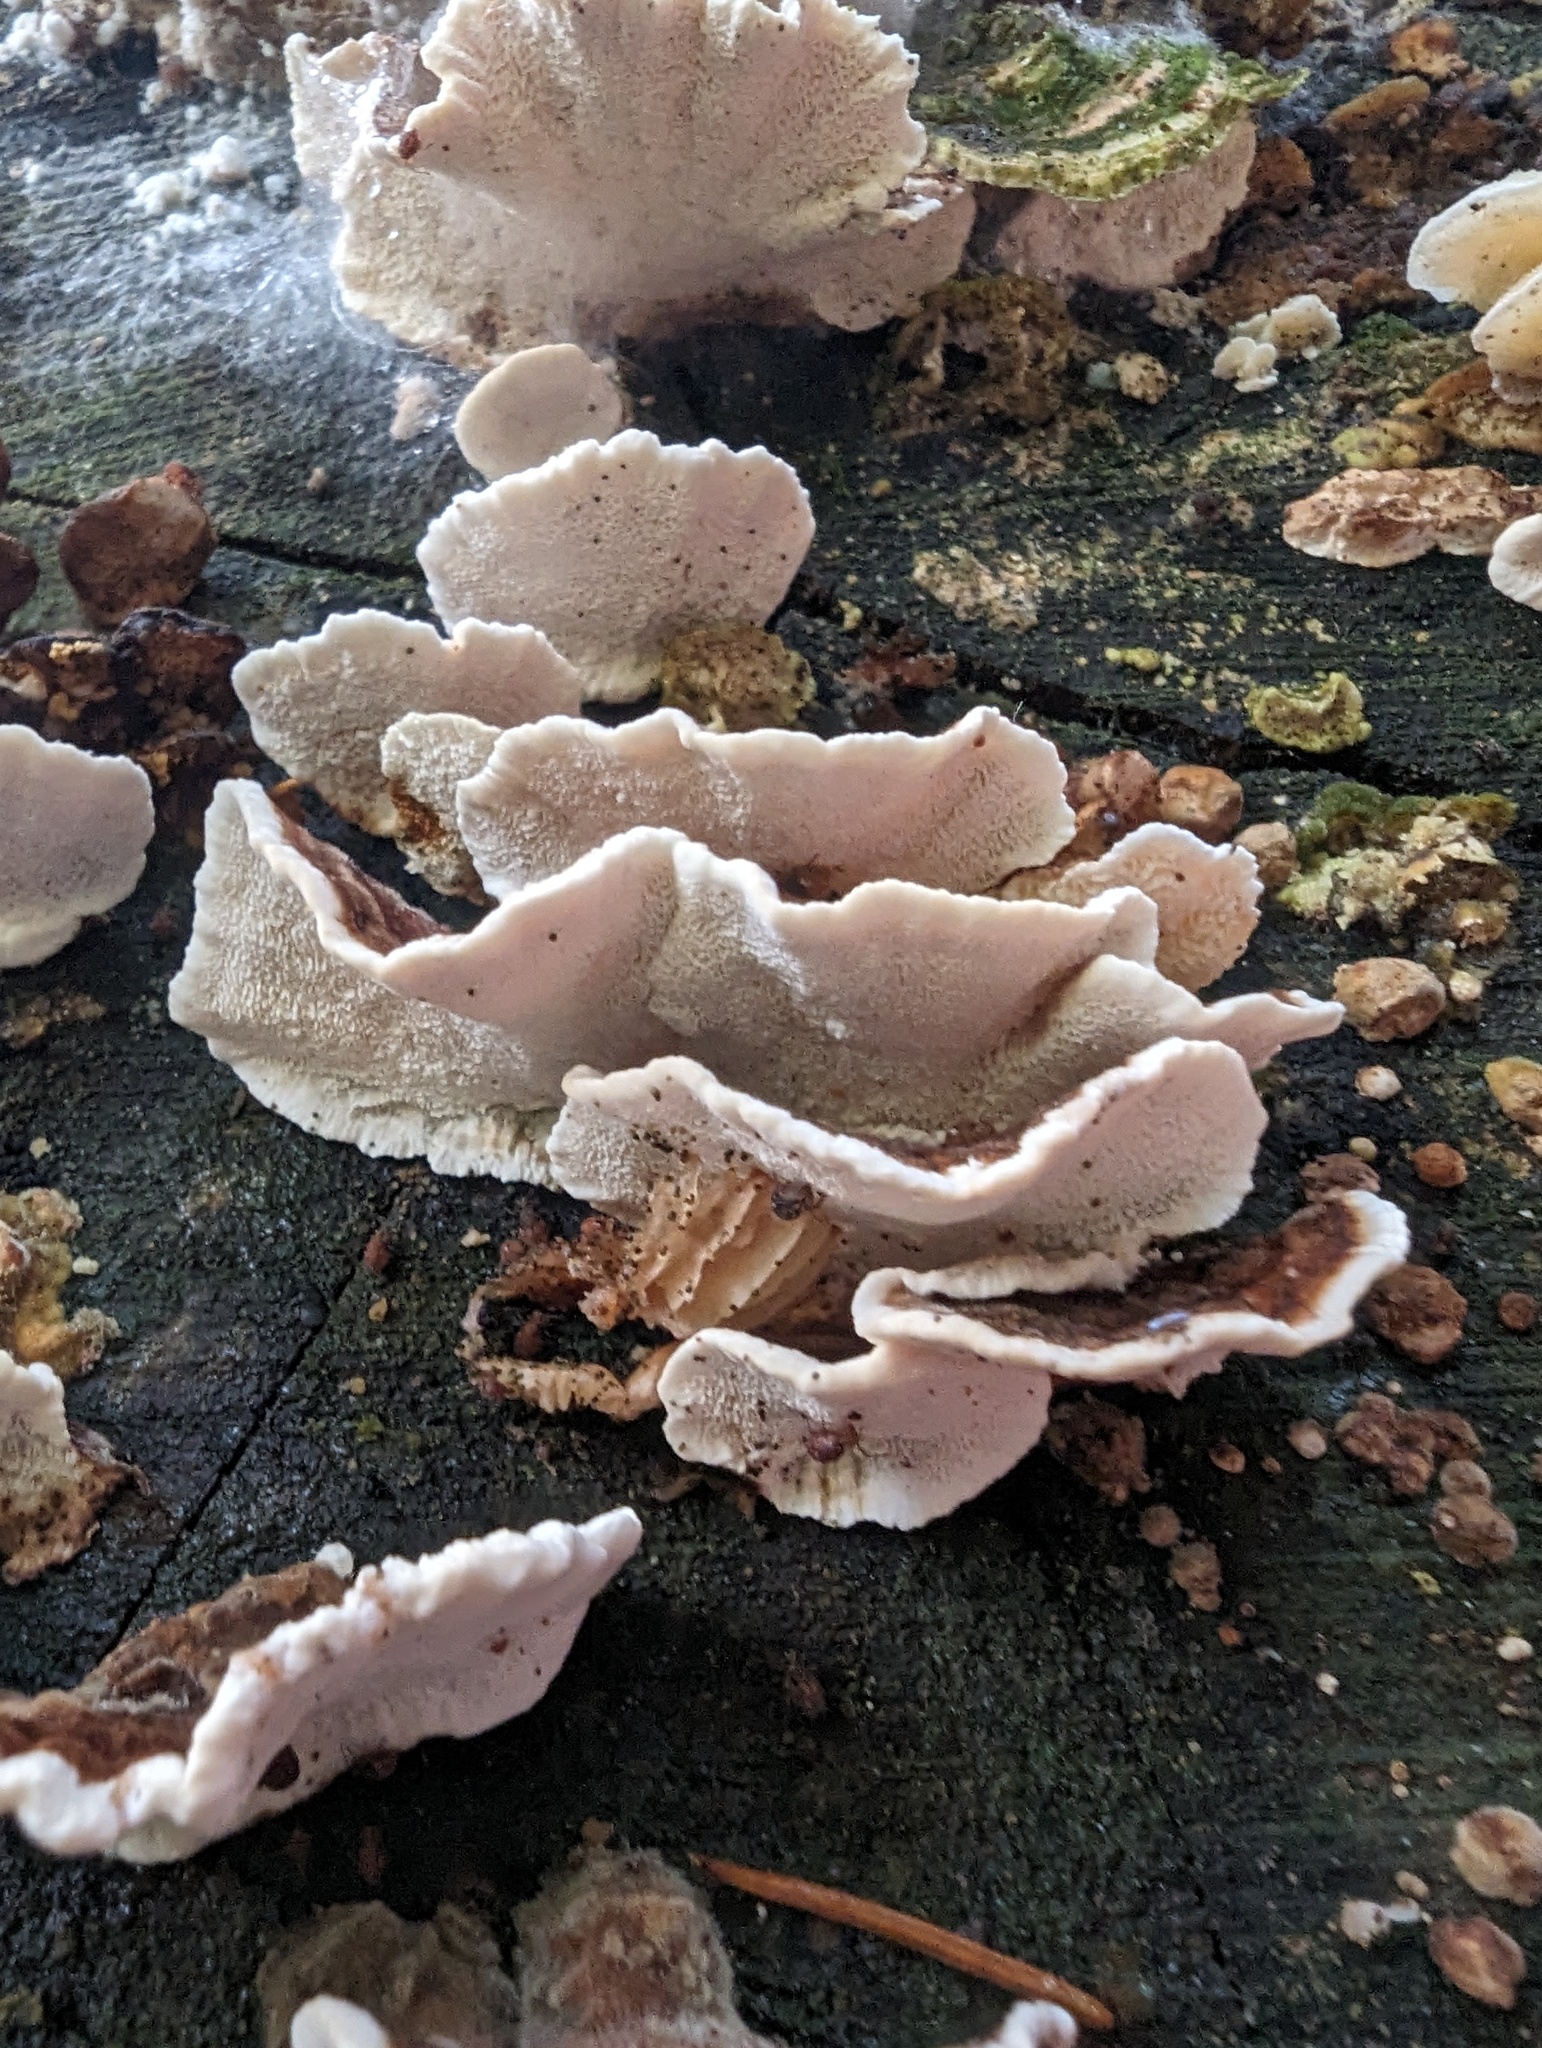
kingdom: Fungi
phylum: Basidiomycota
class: Agaricomycetes
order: Polyporales
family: Polyporaceae
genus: Trametes
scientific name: Trametes versicolor
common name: Turkeytail
